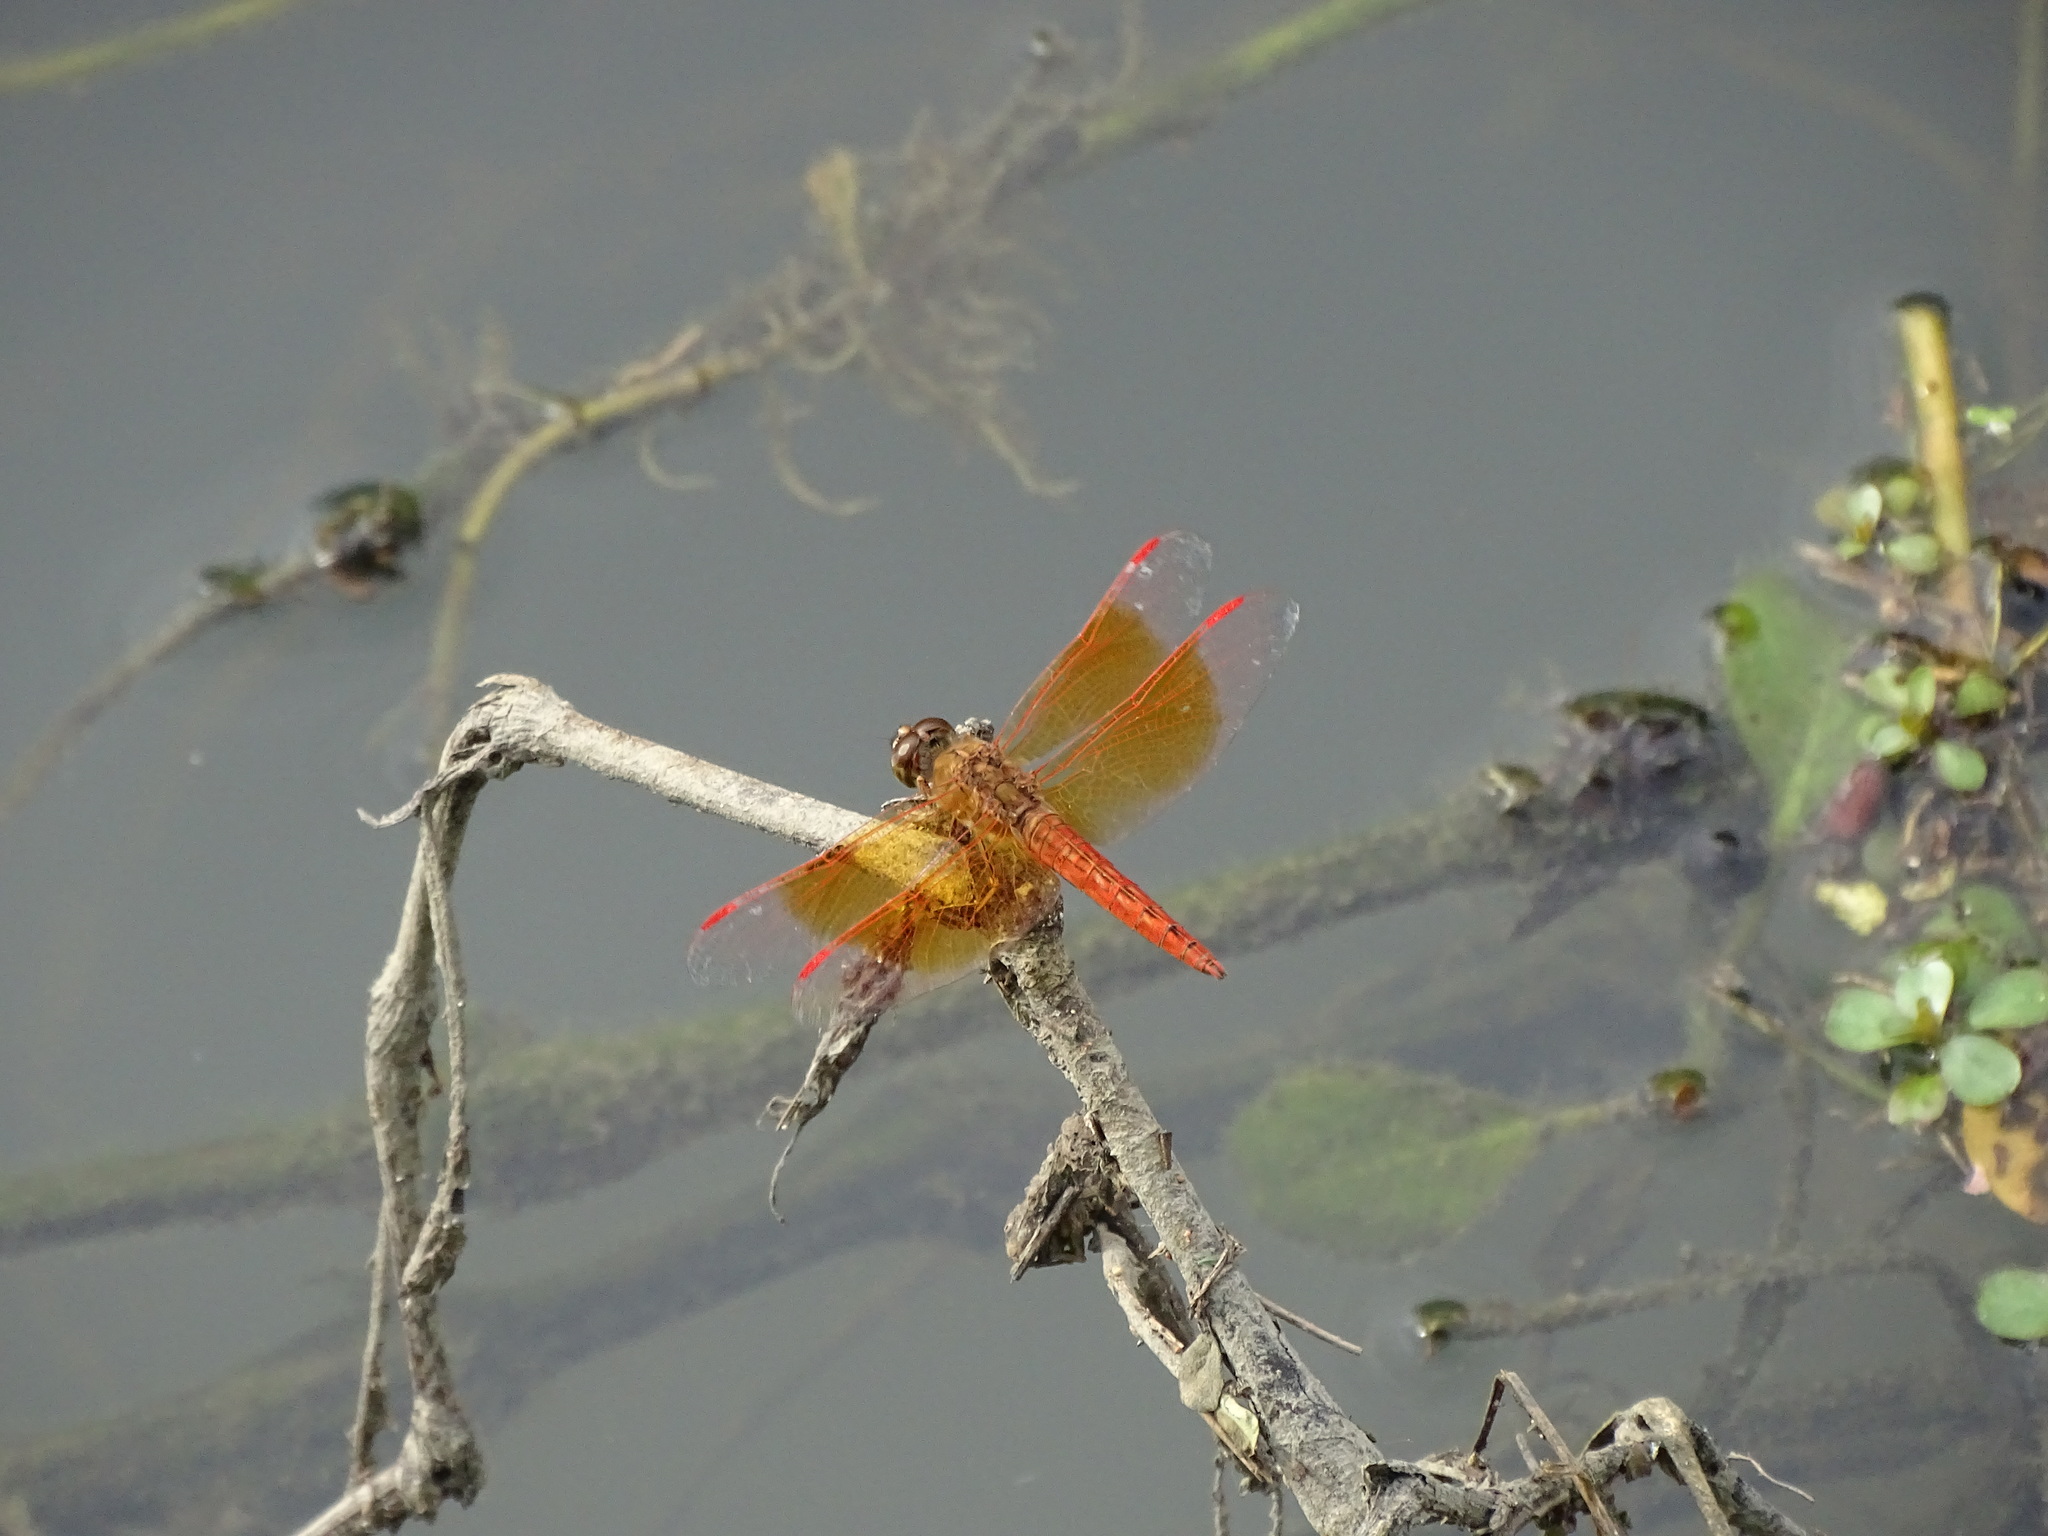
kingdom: Animalia
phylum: Arthropoda
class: Insecta
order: Odonata
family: Libellulidae
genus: Brachythemis
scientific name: Brachythemis contaminata
